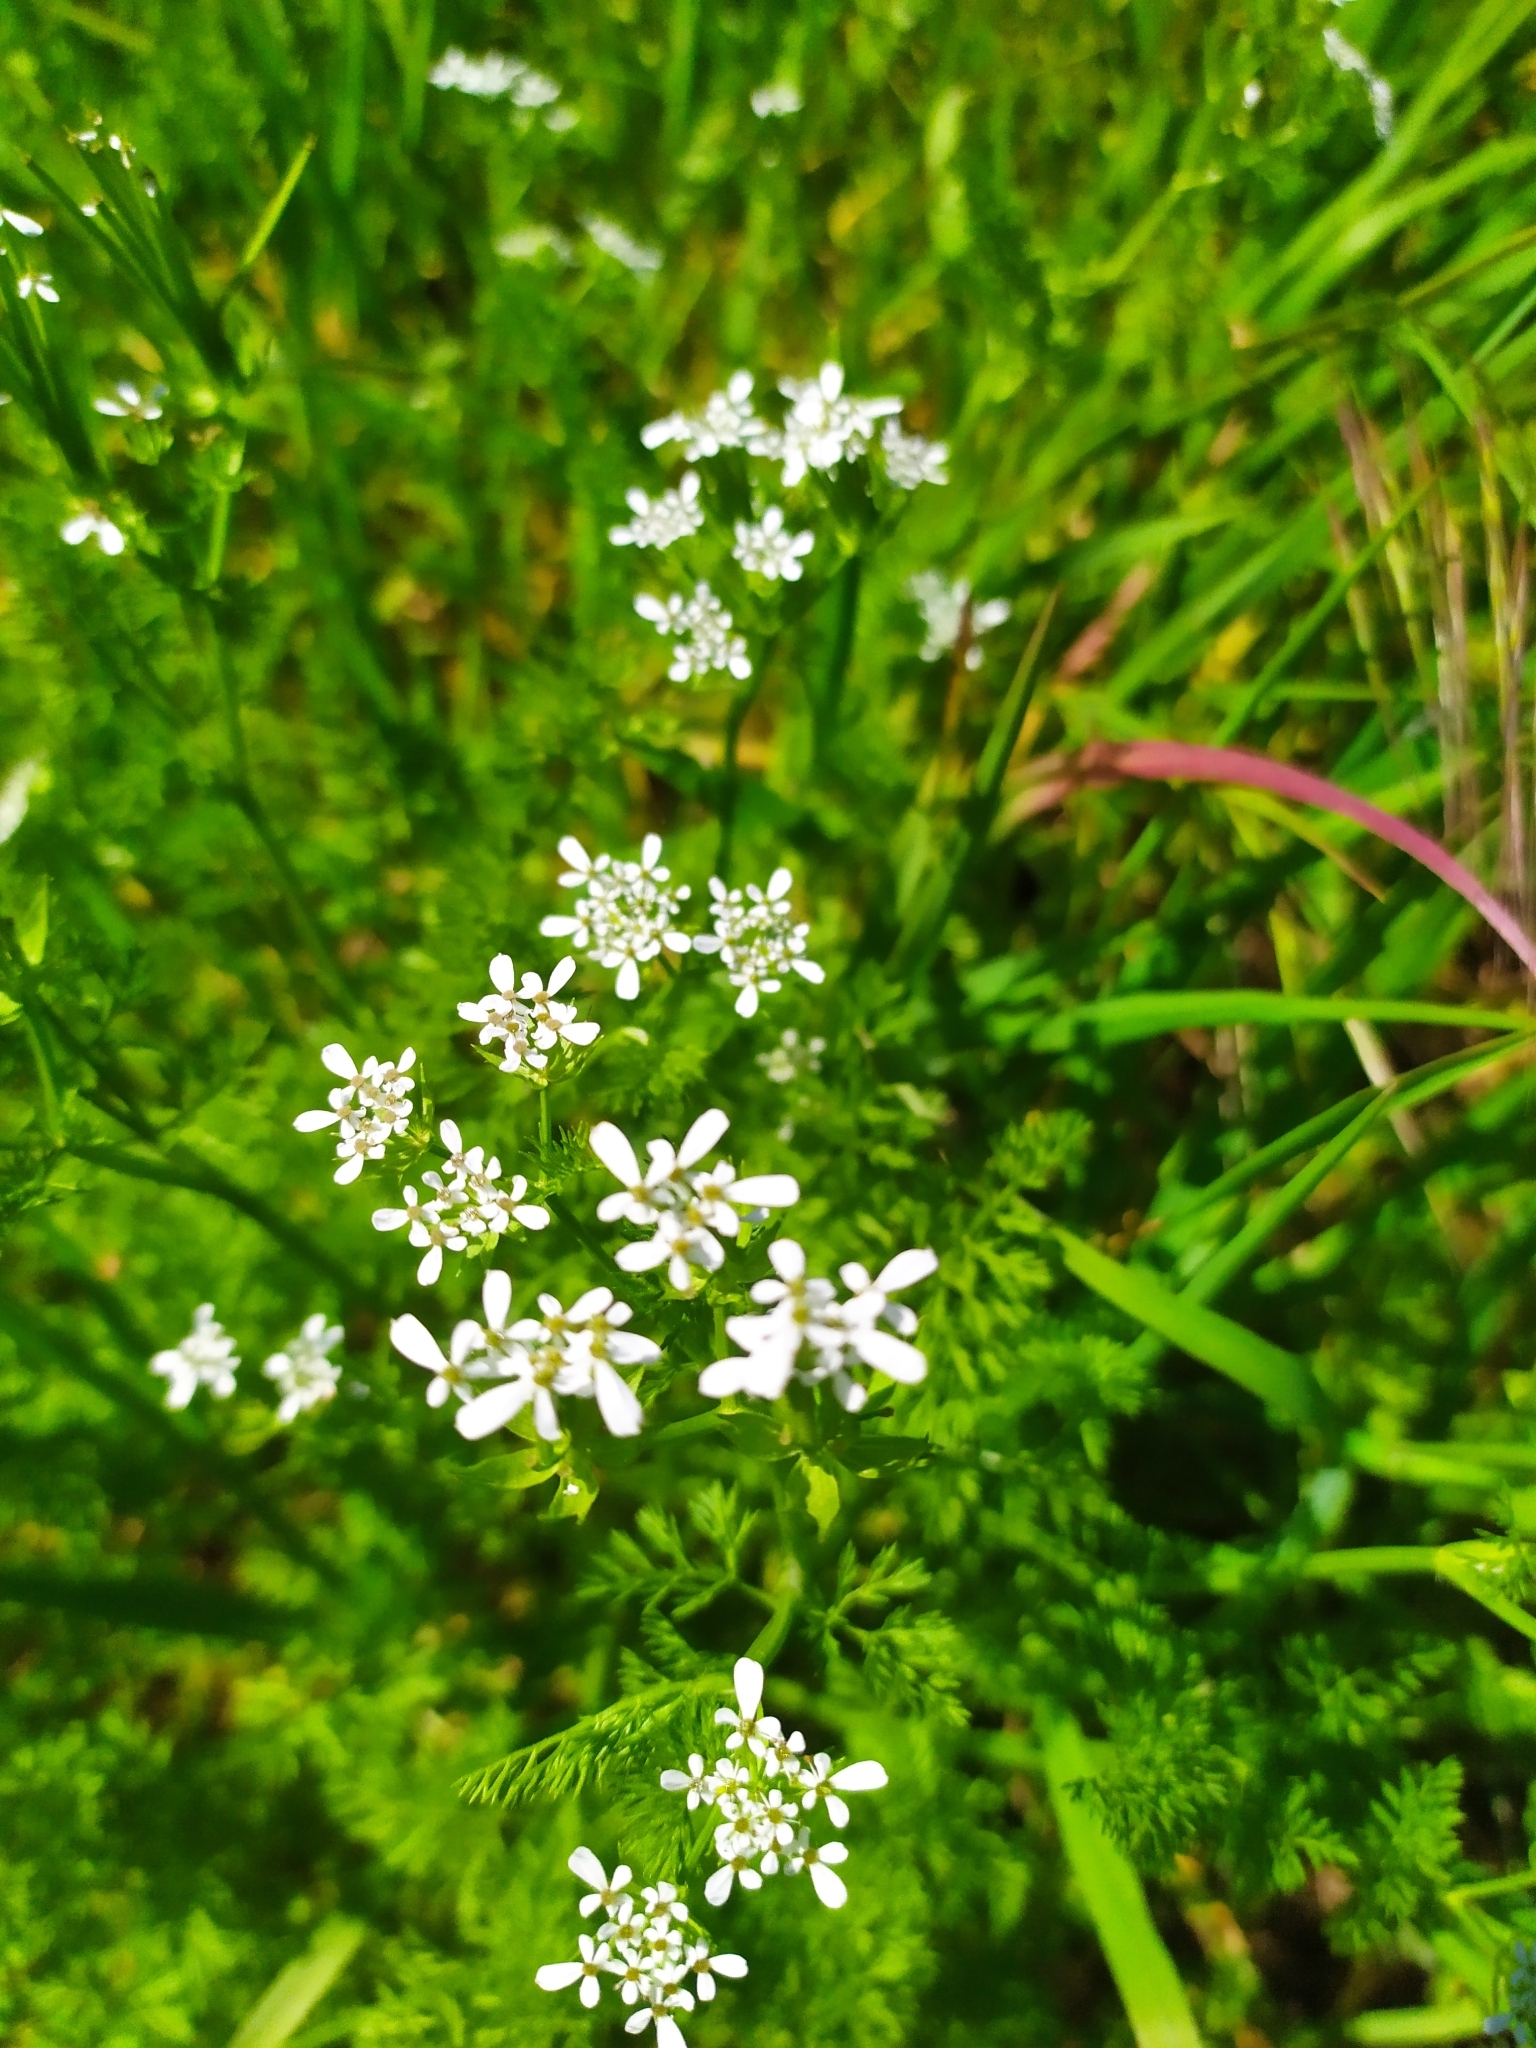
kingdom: Plantae
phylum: Tracheophyta
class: Magnoliopsida
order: Apiales
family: Apiaceae
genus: Scandix
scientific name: Scandix pecten-veneris
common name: Shepherd's-needle
